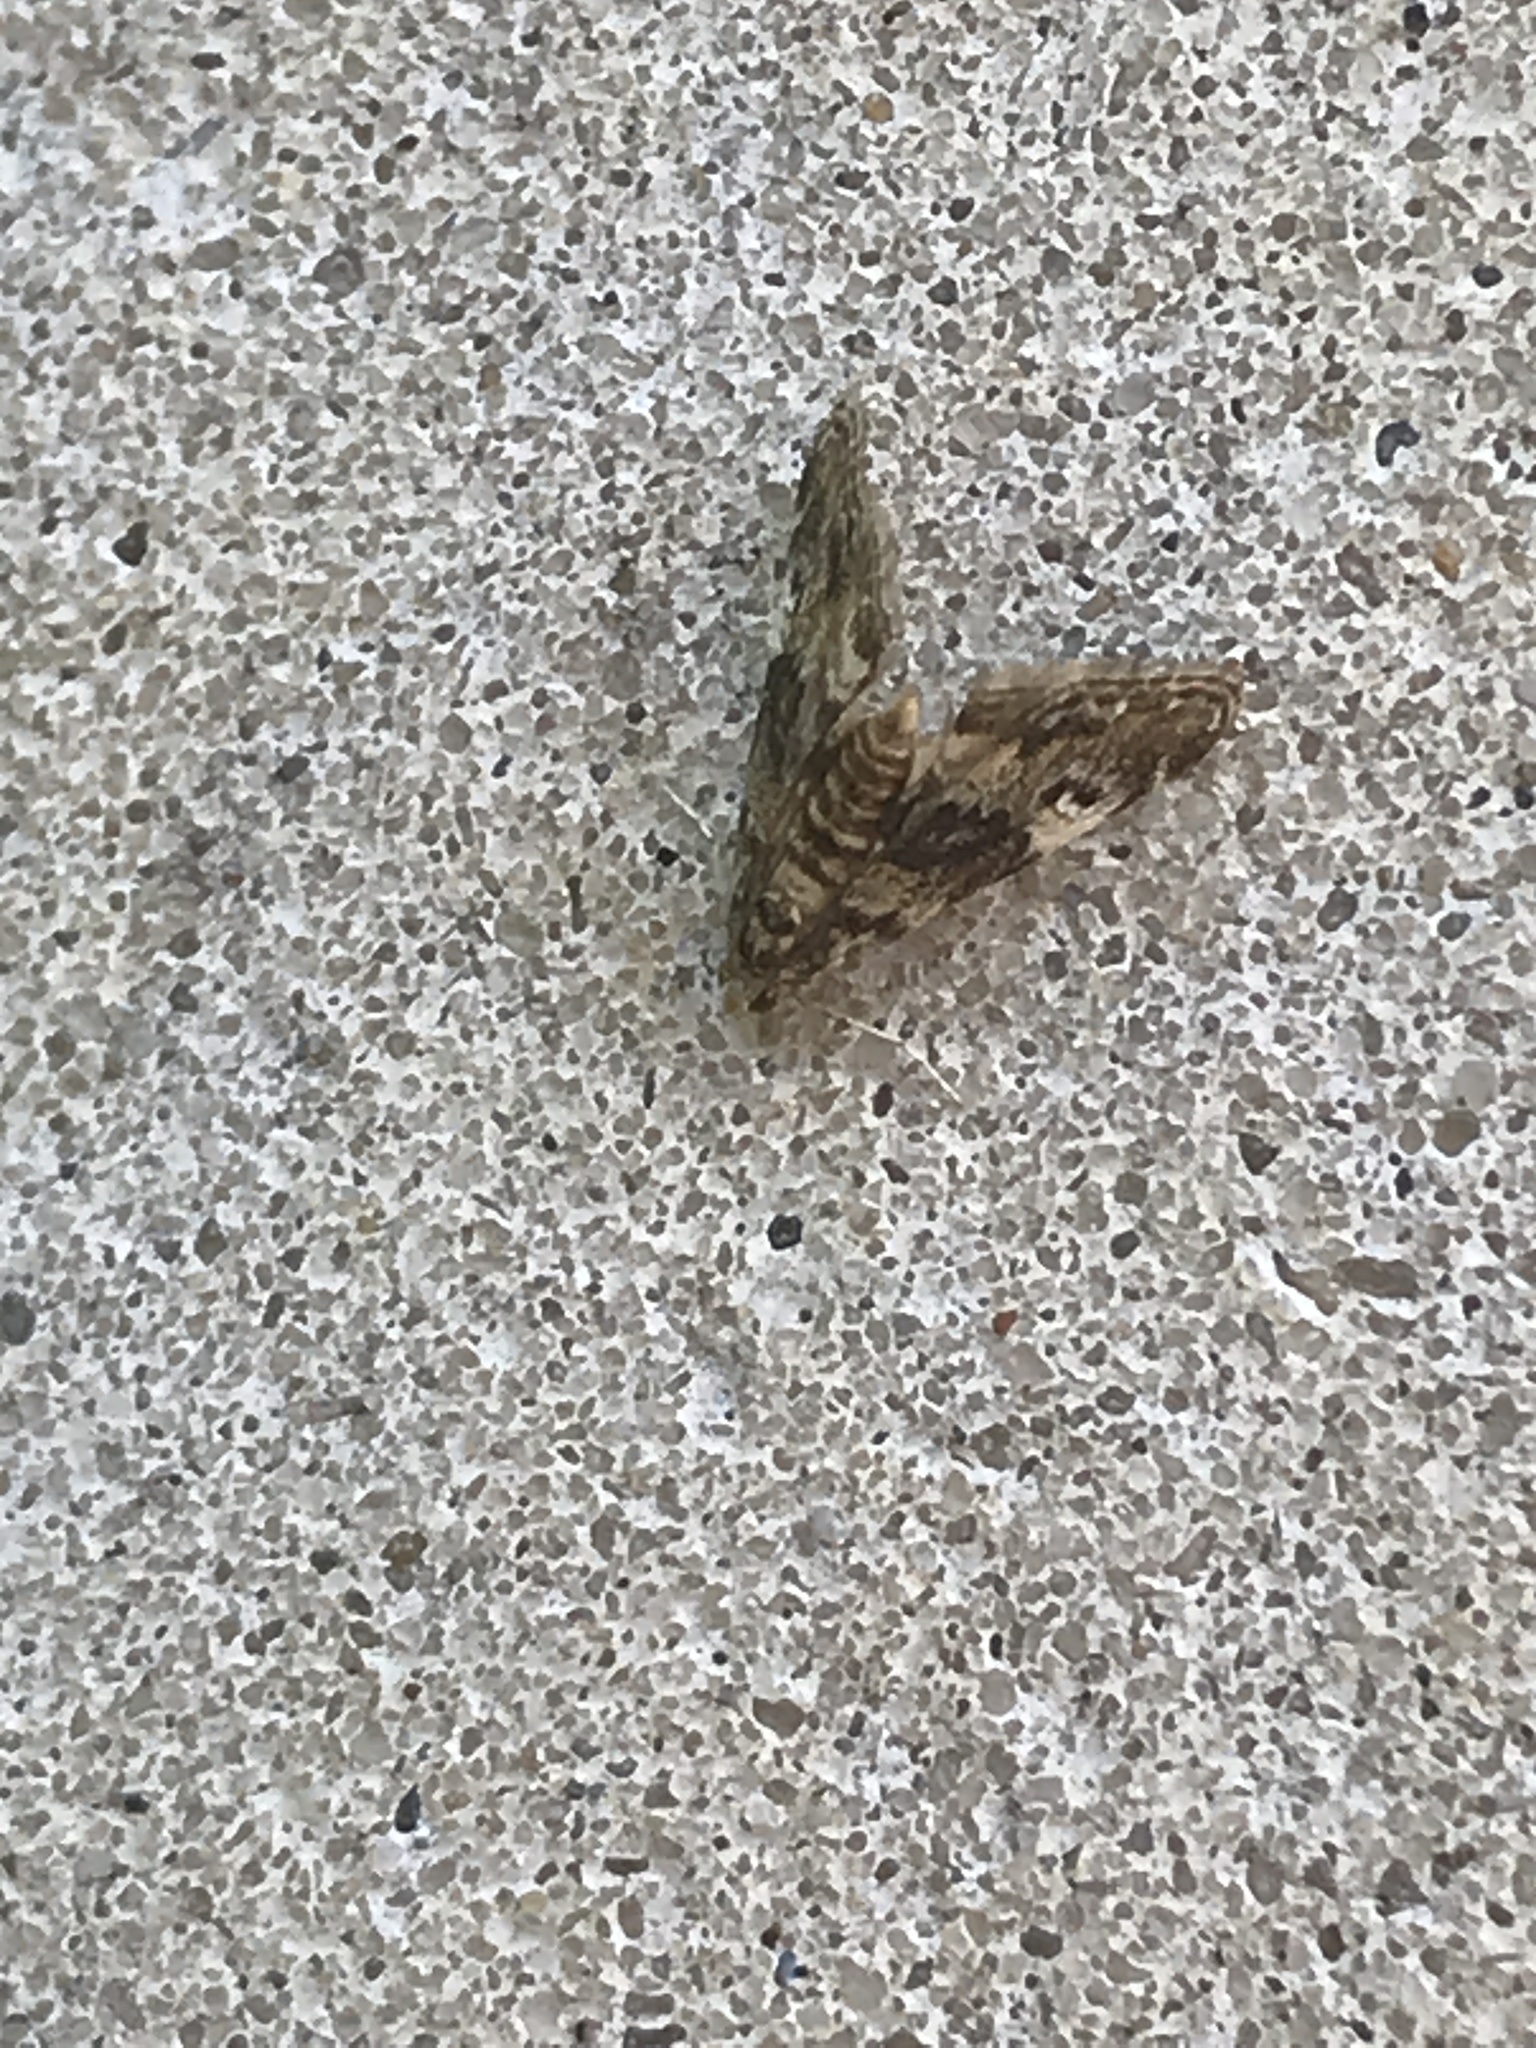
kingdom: Animalia
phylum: Arthropoda
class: Insecta
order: Lepidoptera
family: Crambidae
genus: Elophila
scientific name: Elophila obliteralis
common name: Waterlily leafcutter moth
